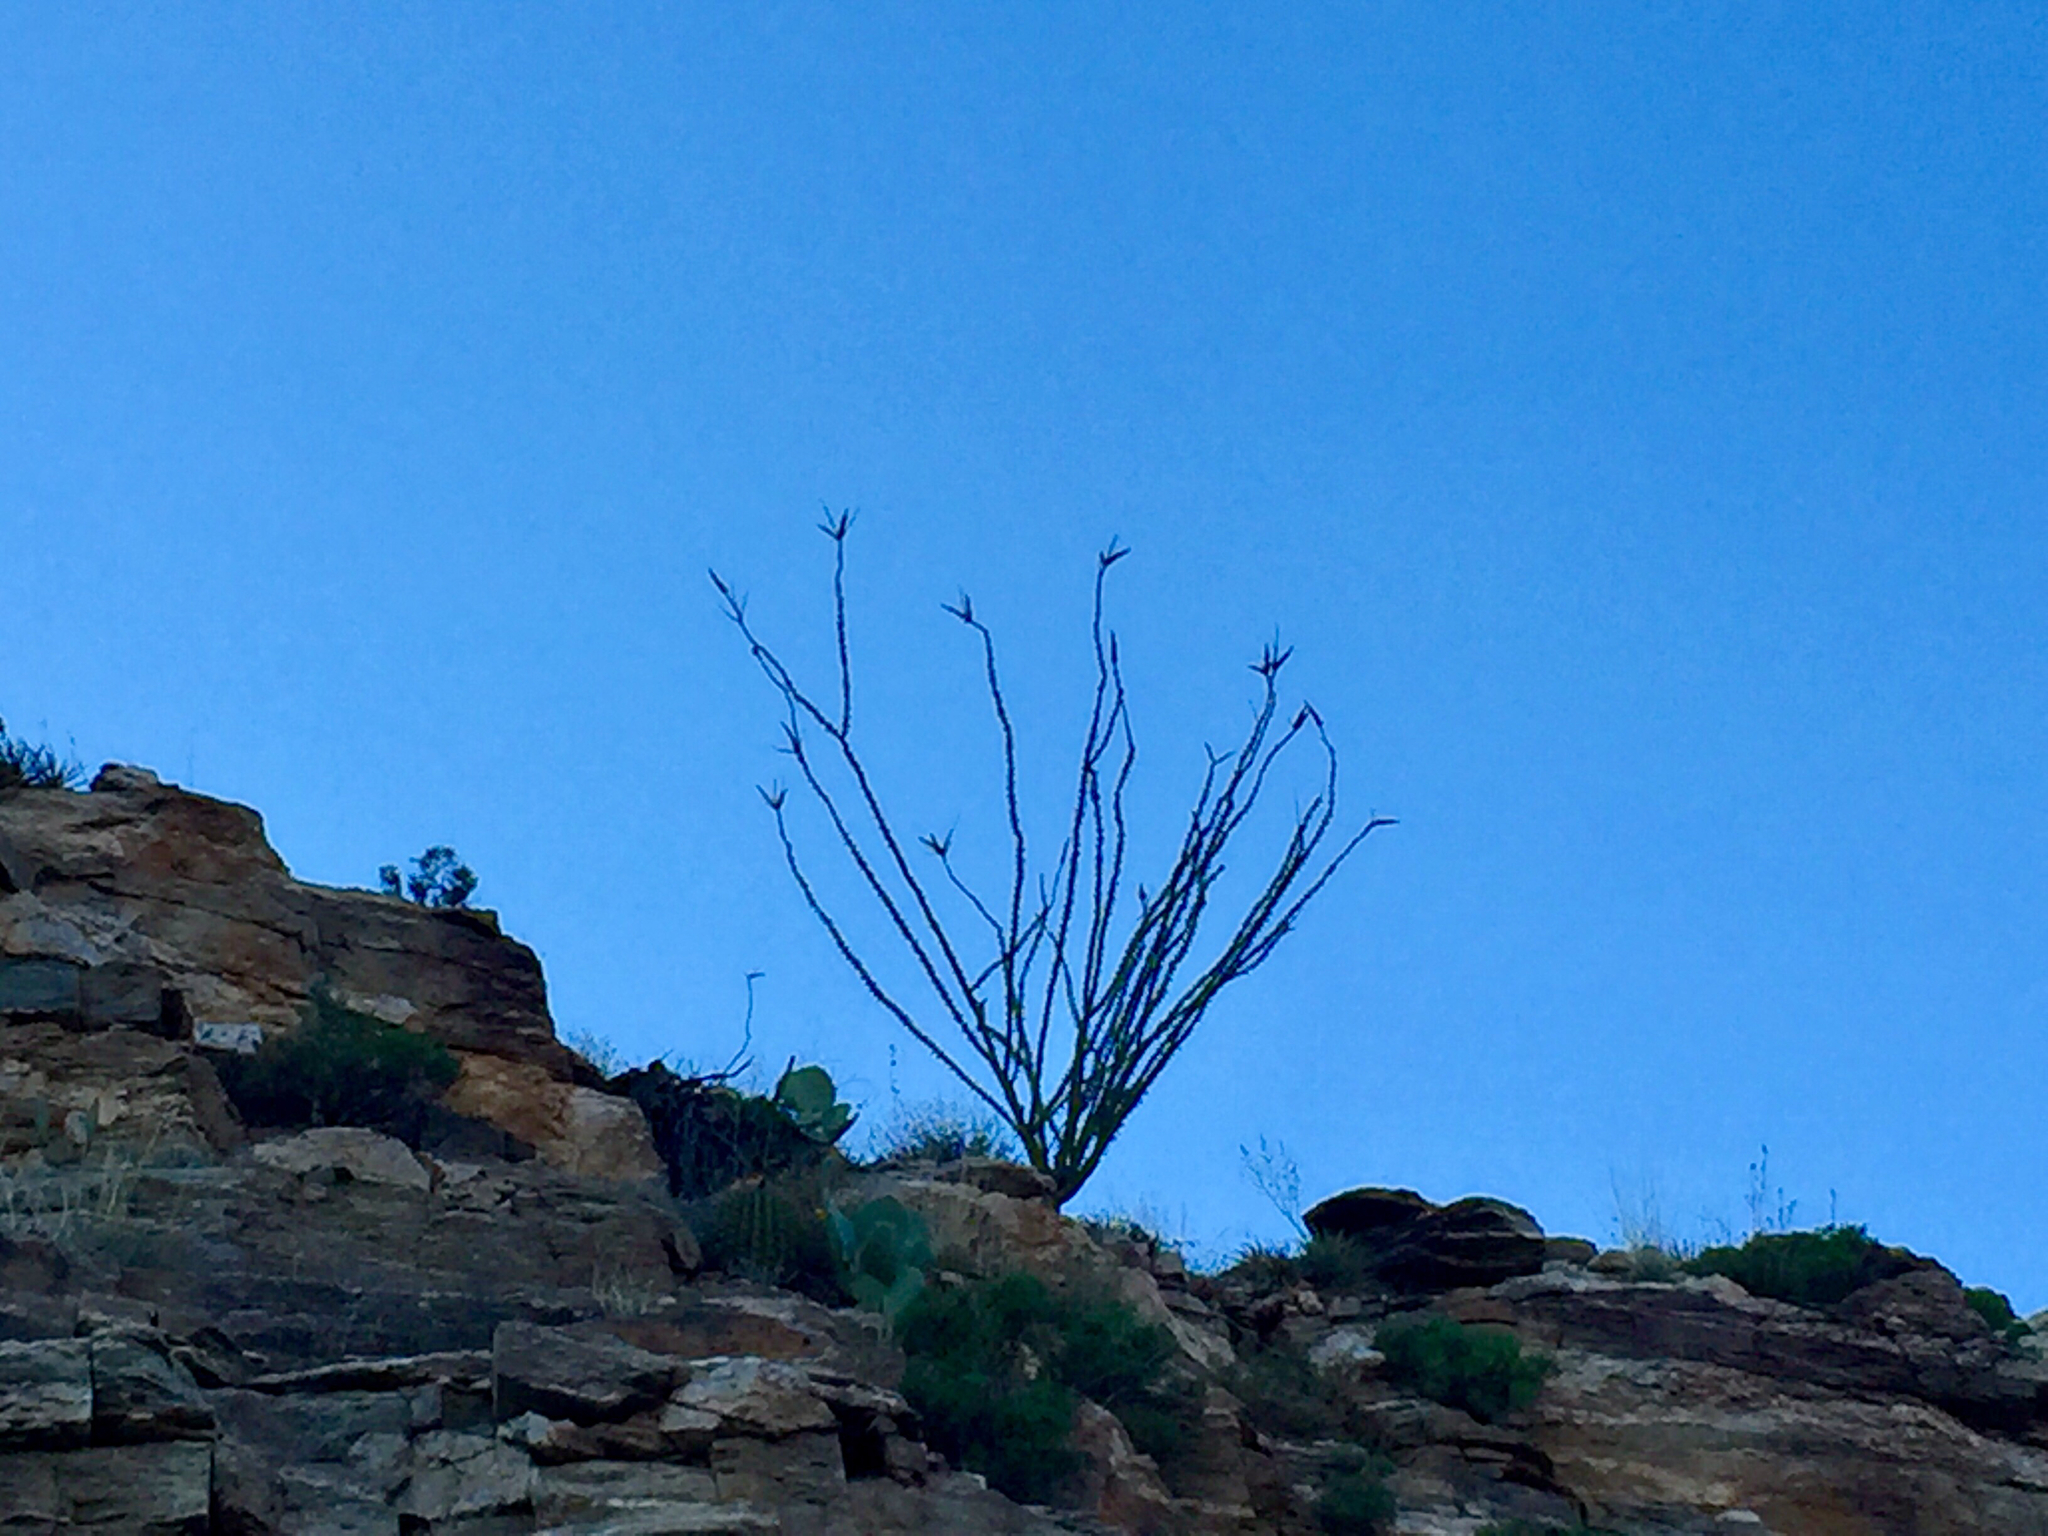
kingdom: Plantae
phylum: Tracheophyta
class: Magnoliopsida
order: Ericales
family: Fouquieriaceae
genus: Fouquieria
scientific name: Fouquieria splendens
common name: Vine-cactus
